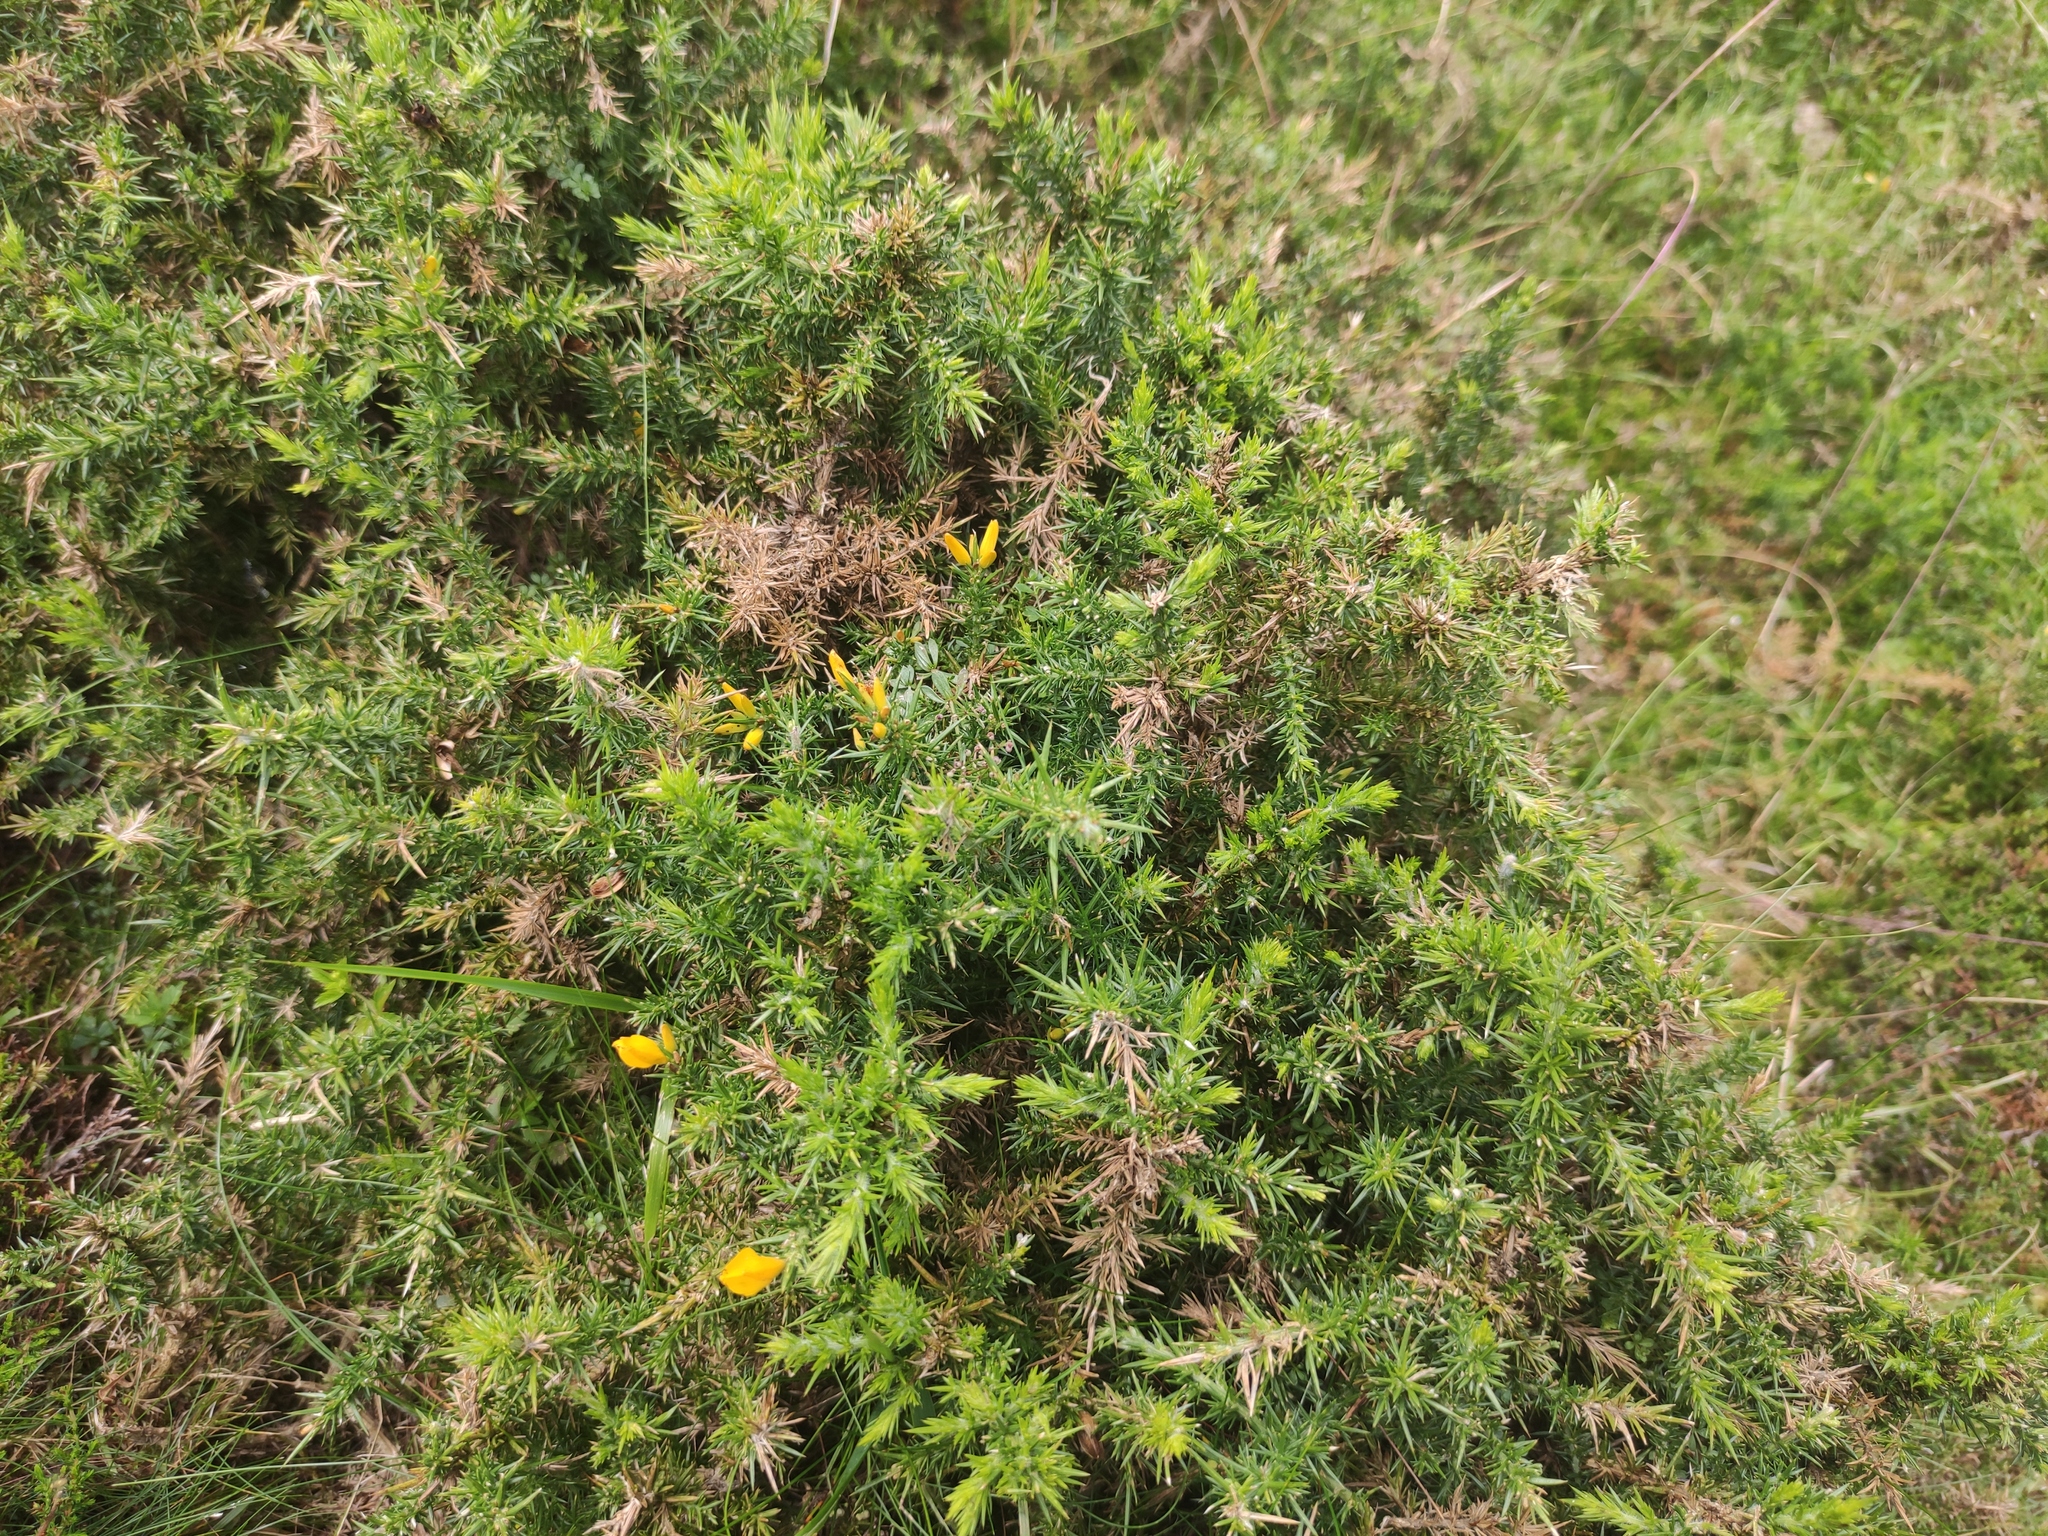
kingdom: Plantae
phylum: Tracheophyta
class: Magnoliopsida
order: Fabales
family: Fabaceae
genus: Ulex
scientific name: Ulex gallii
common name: Western gorse
